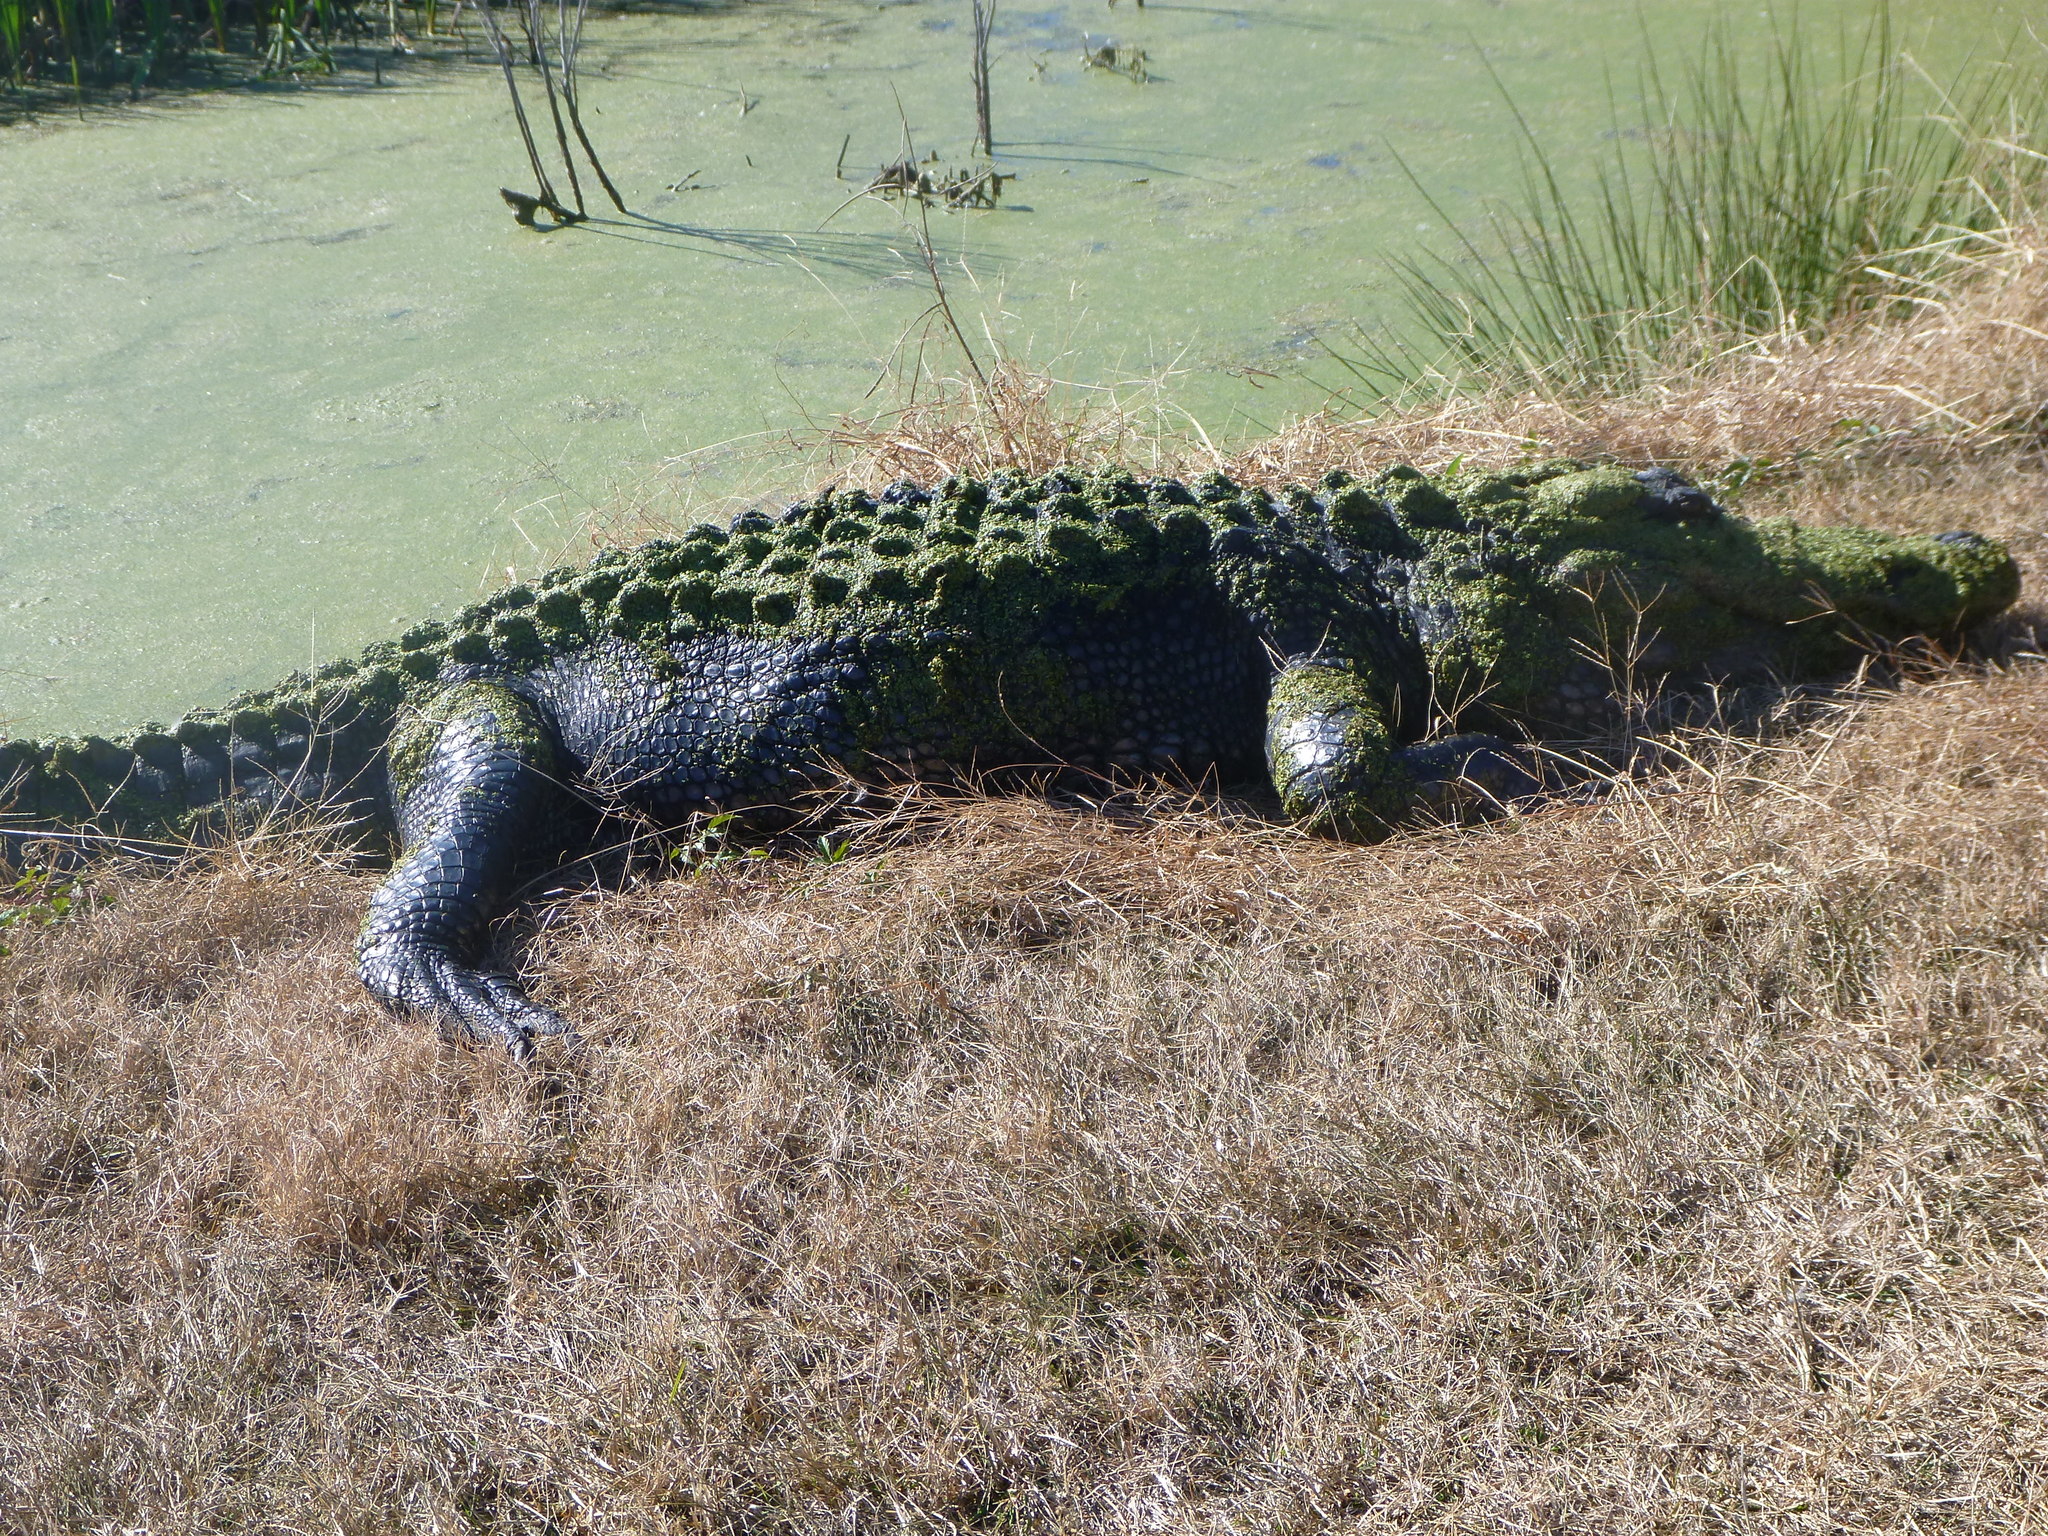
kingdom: Animalia
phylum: Chordata
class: Crocodylia
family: Alligatoridae
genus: Alligator
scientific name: Alligator mississippiensis
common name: American alligator
